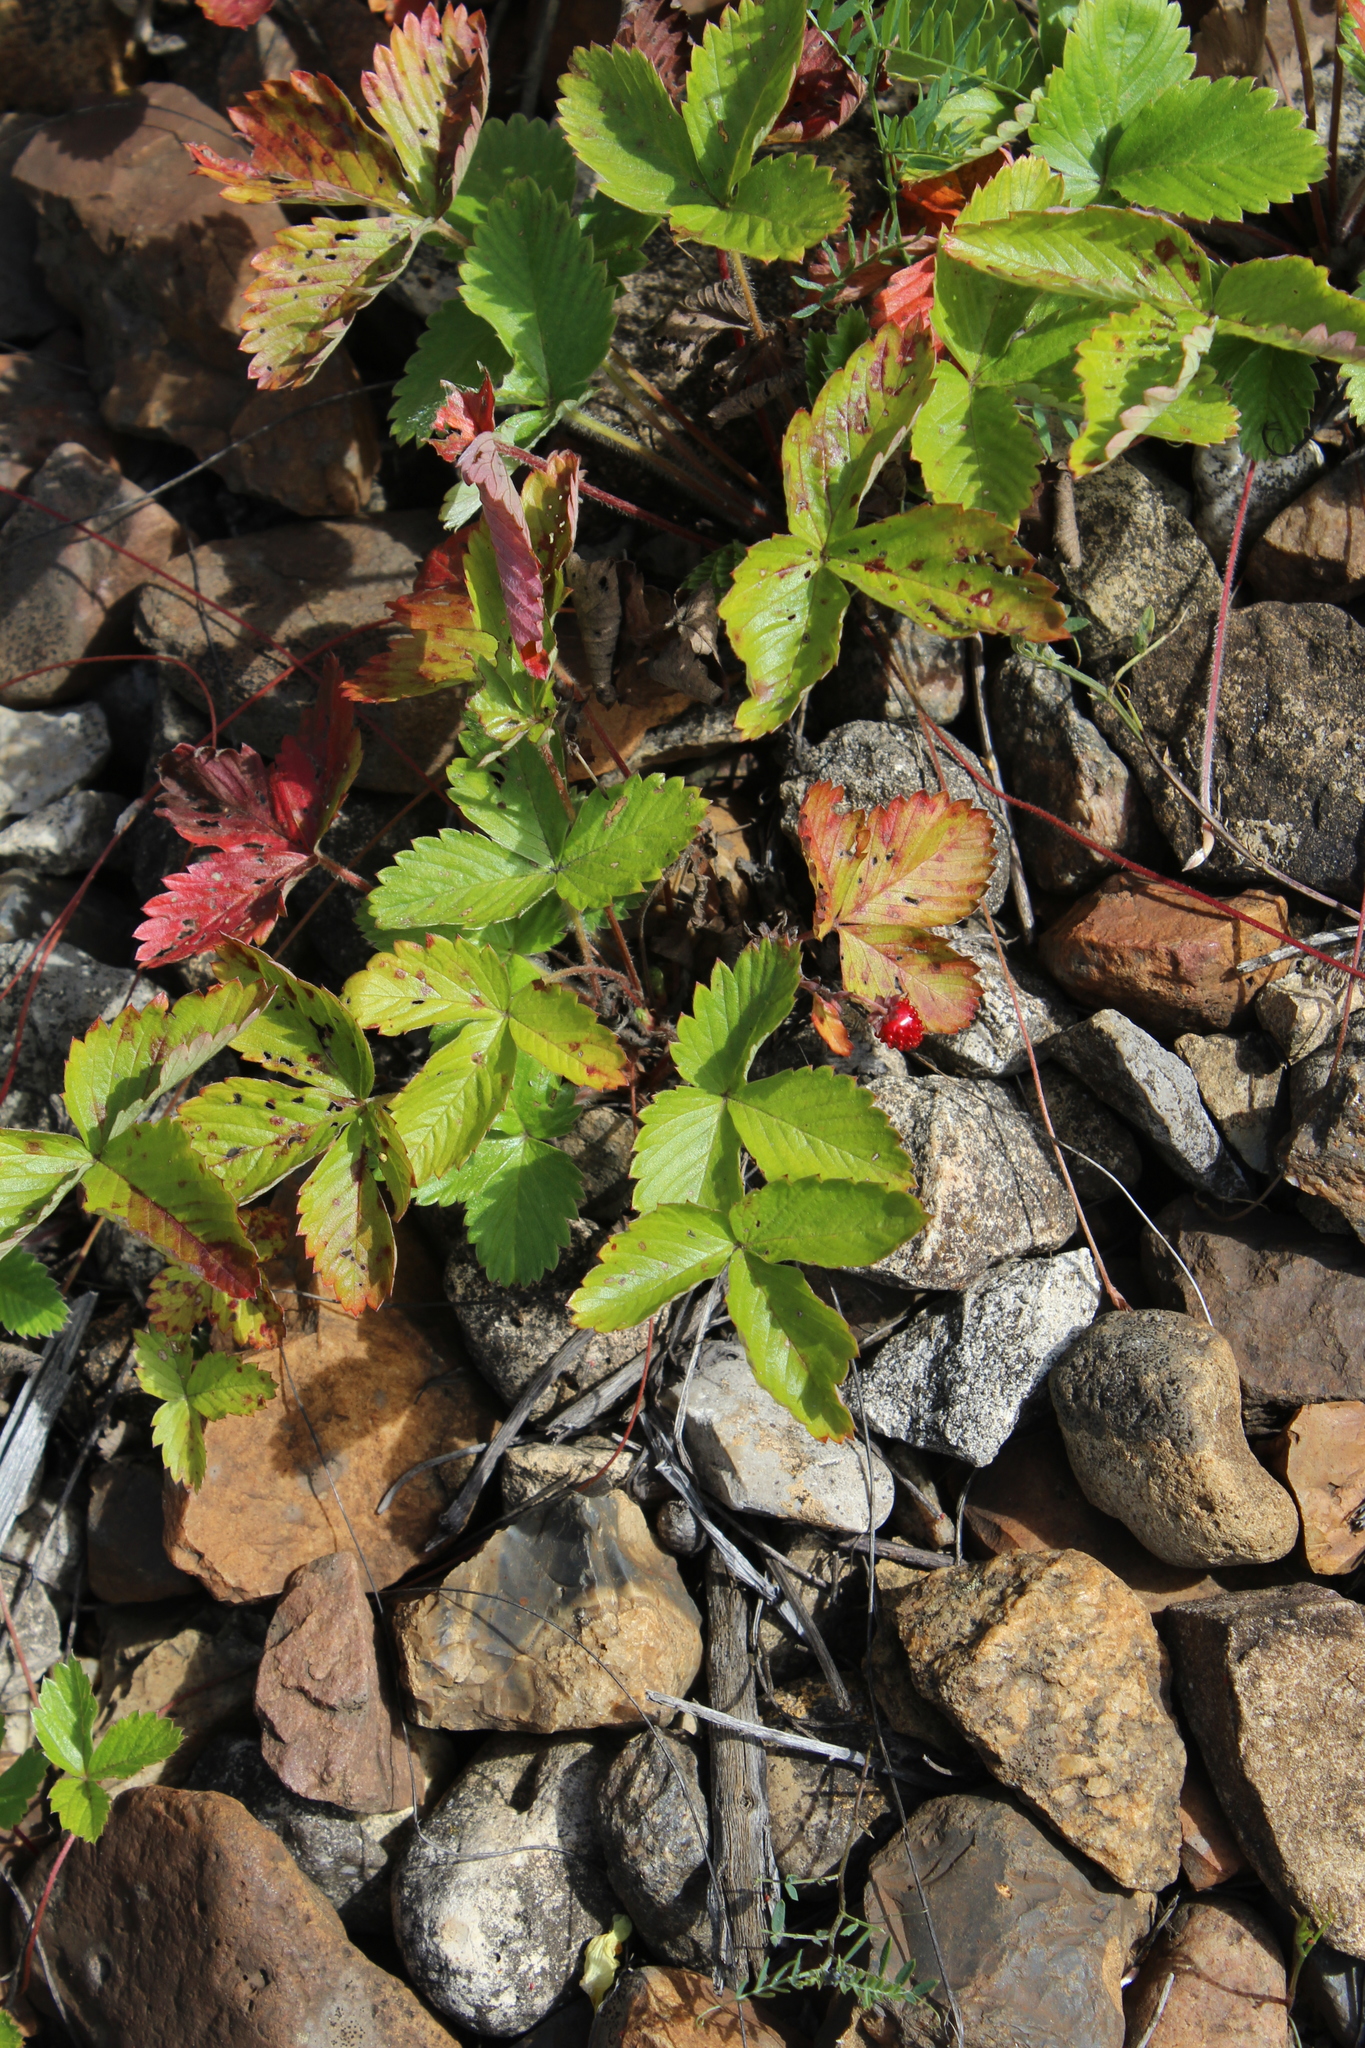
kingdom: Plantae
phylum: Tracheophyta
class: Magnoliopsida
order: Rosales
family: Rosaceae
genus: Fragaria
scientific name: Fragaria vesca
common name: Wild strawberry
